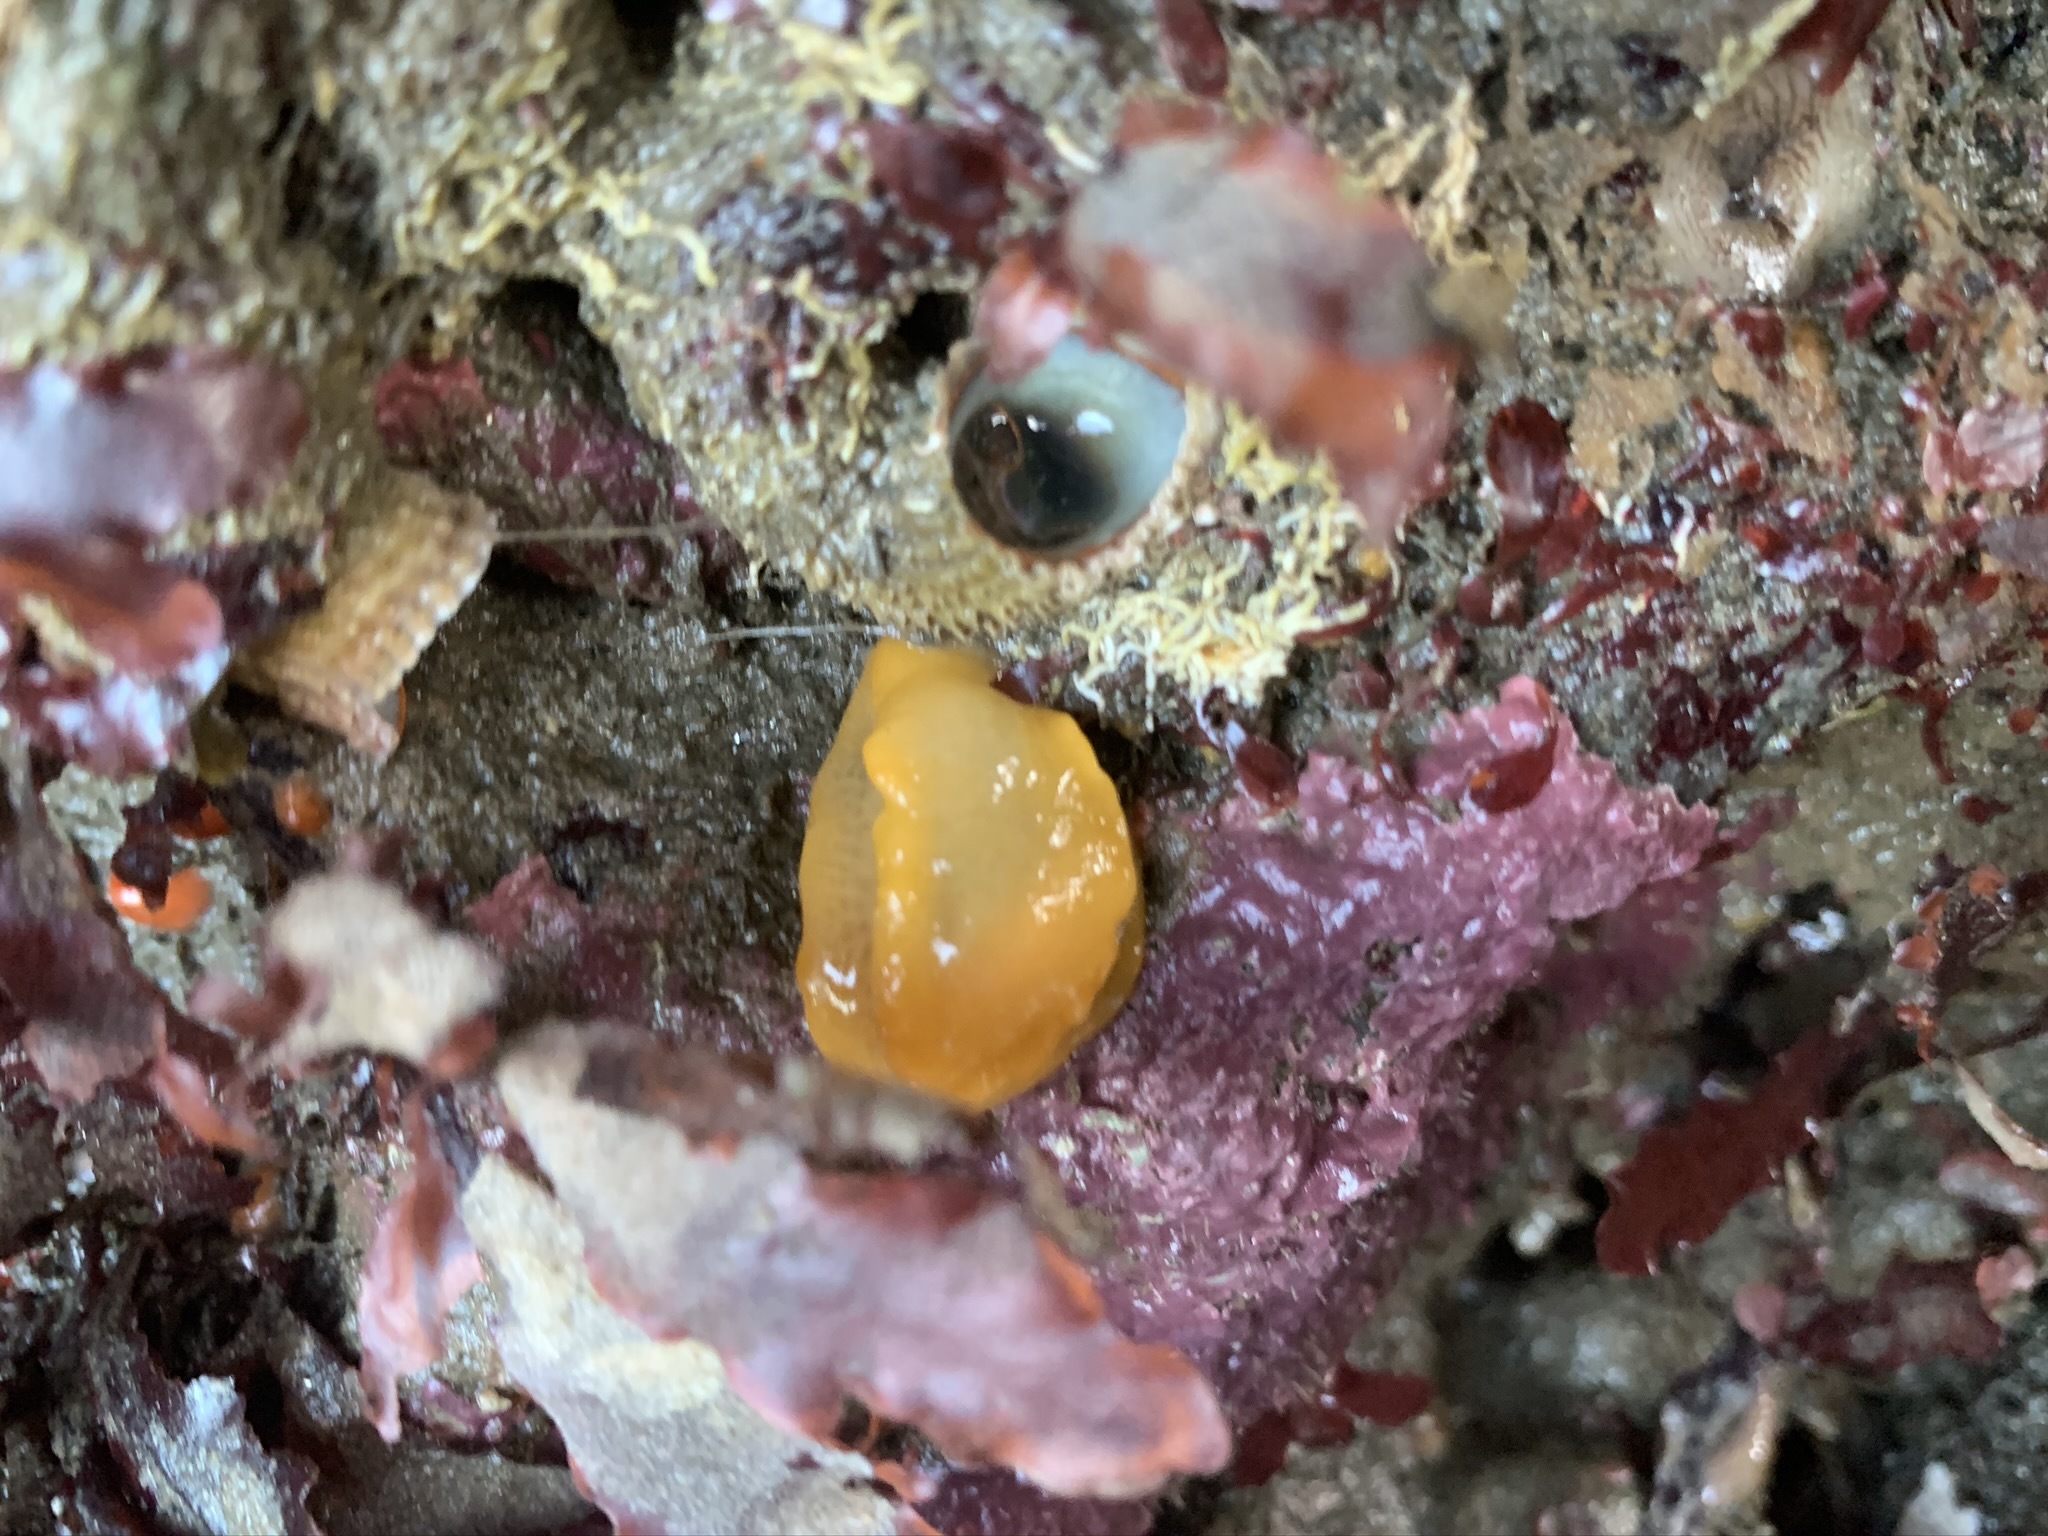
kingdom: Animalia
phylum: Mollusca
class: Gastropoda
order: Nudibranchia
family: Dendrodorididae
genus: Doriopsilla
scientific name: Doriopsilla fulva
